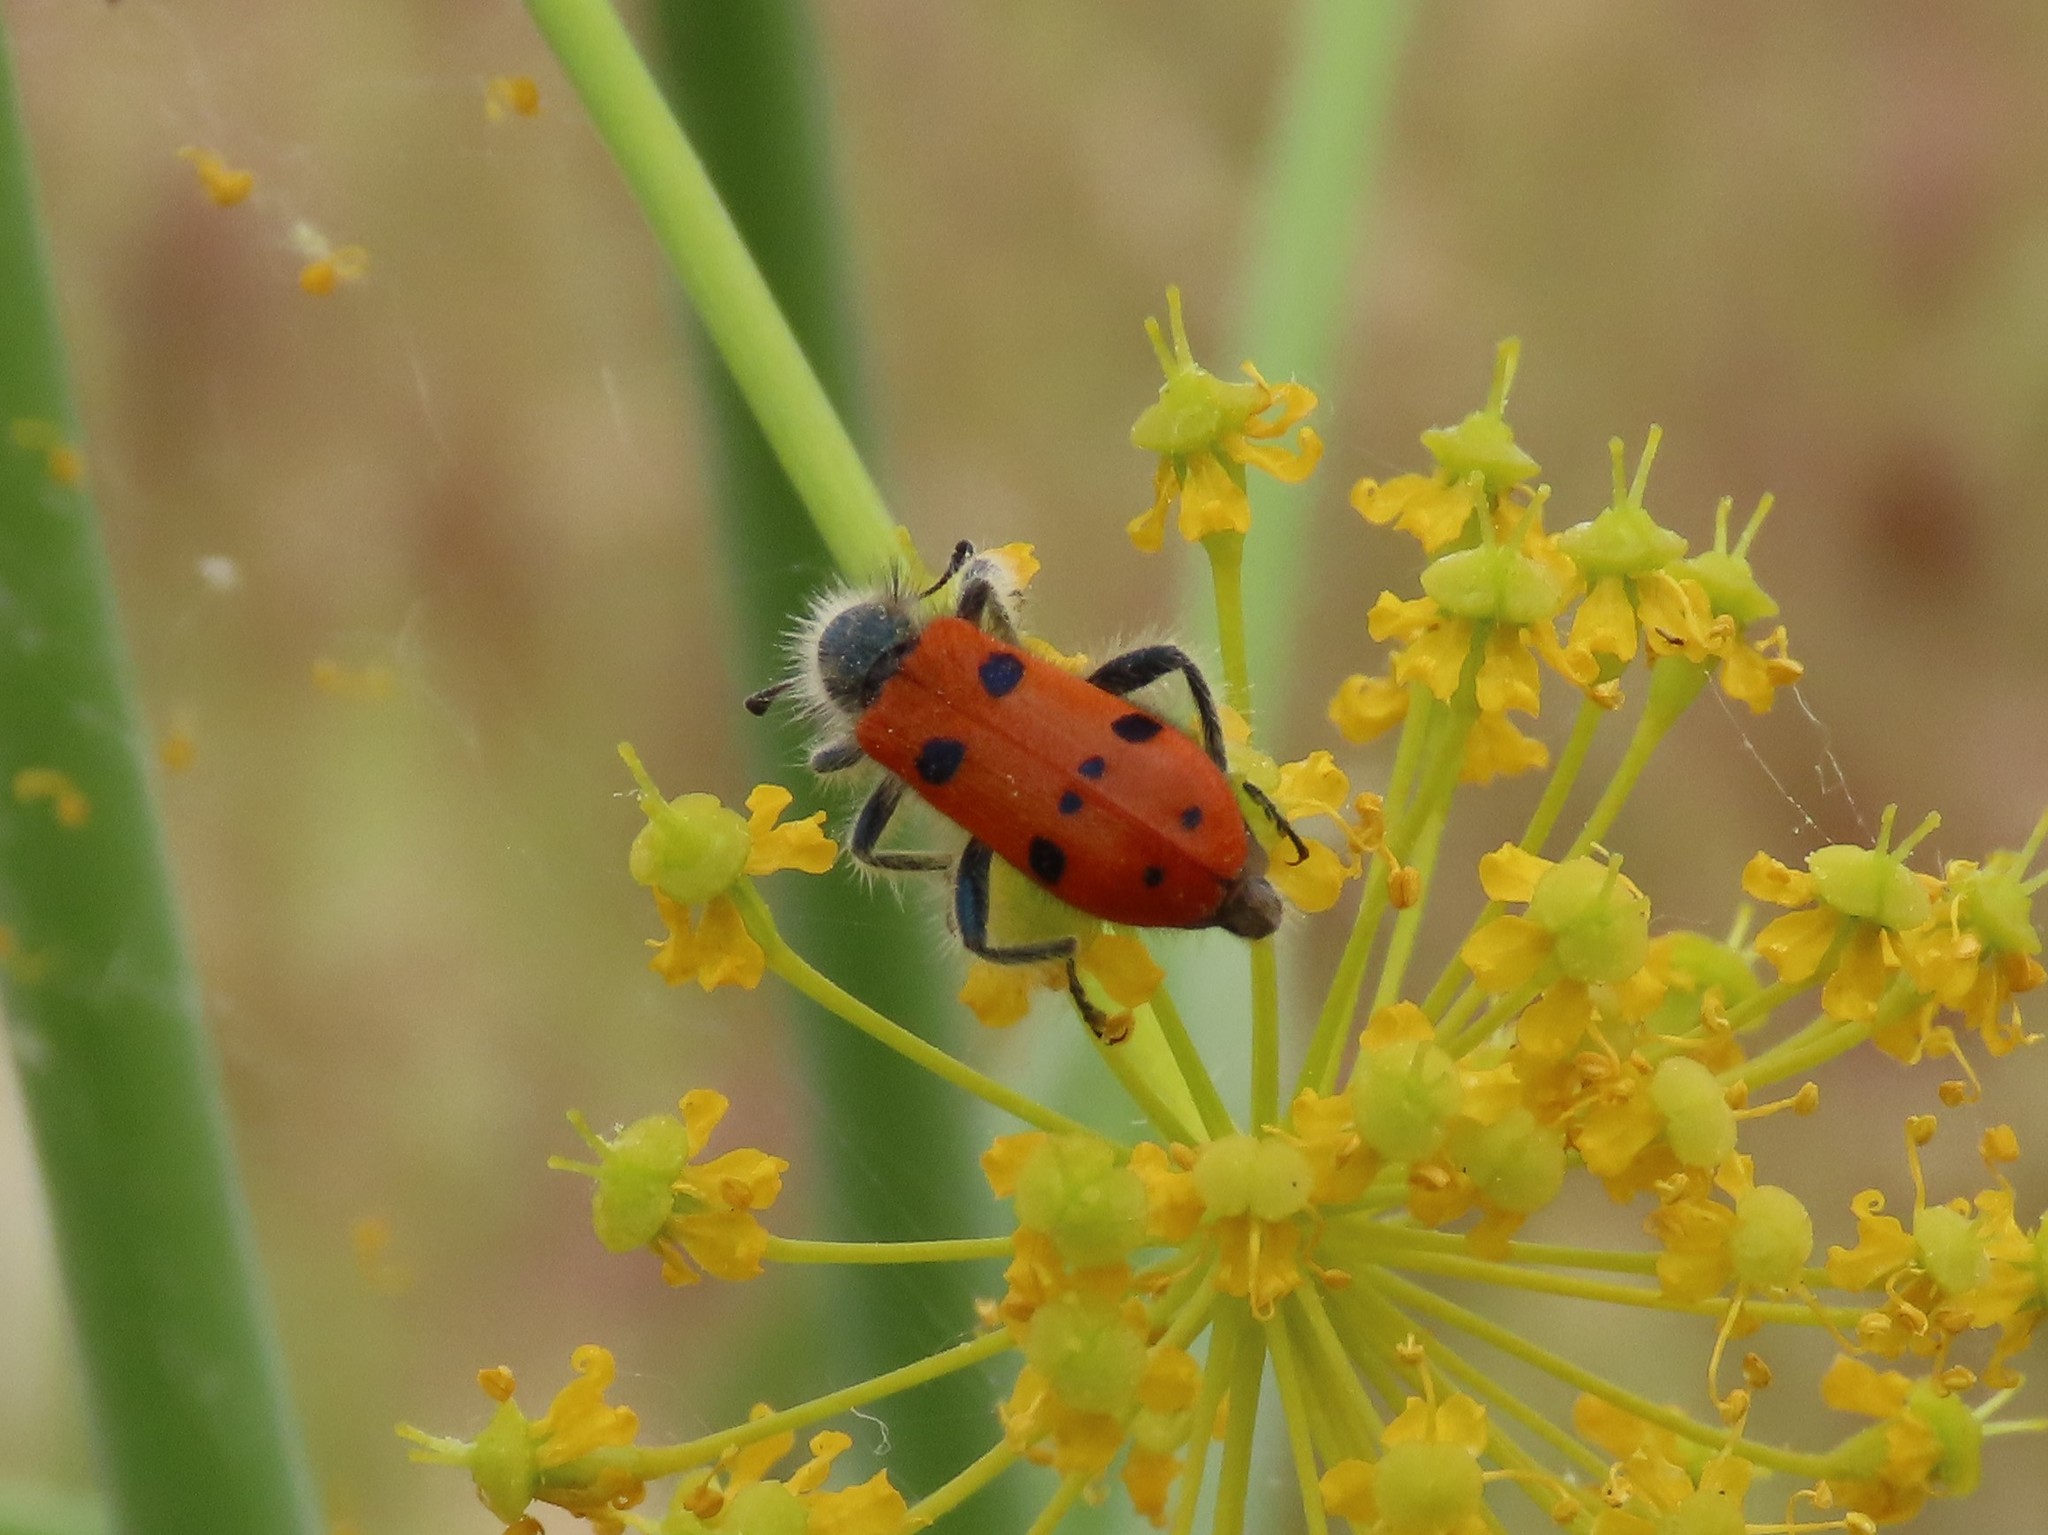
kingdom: Animalia
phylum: Arthropoda
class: Insecta
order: Coleoptera
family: Cleridae
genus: Trichodes
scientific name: Trichodes octopunctatus
